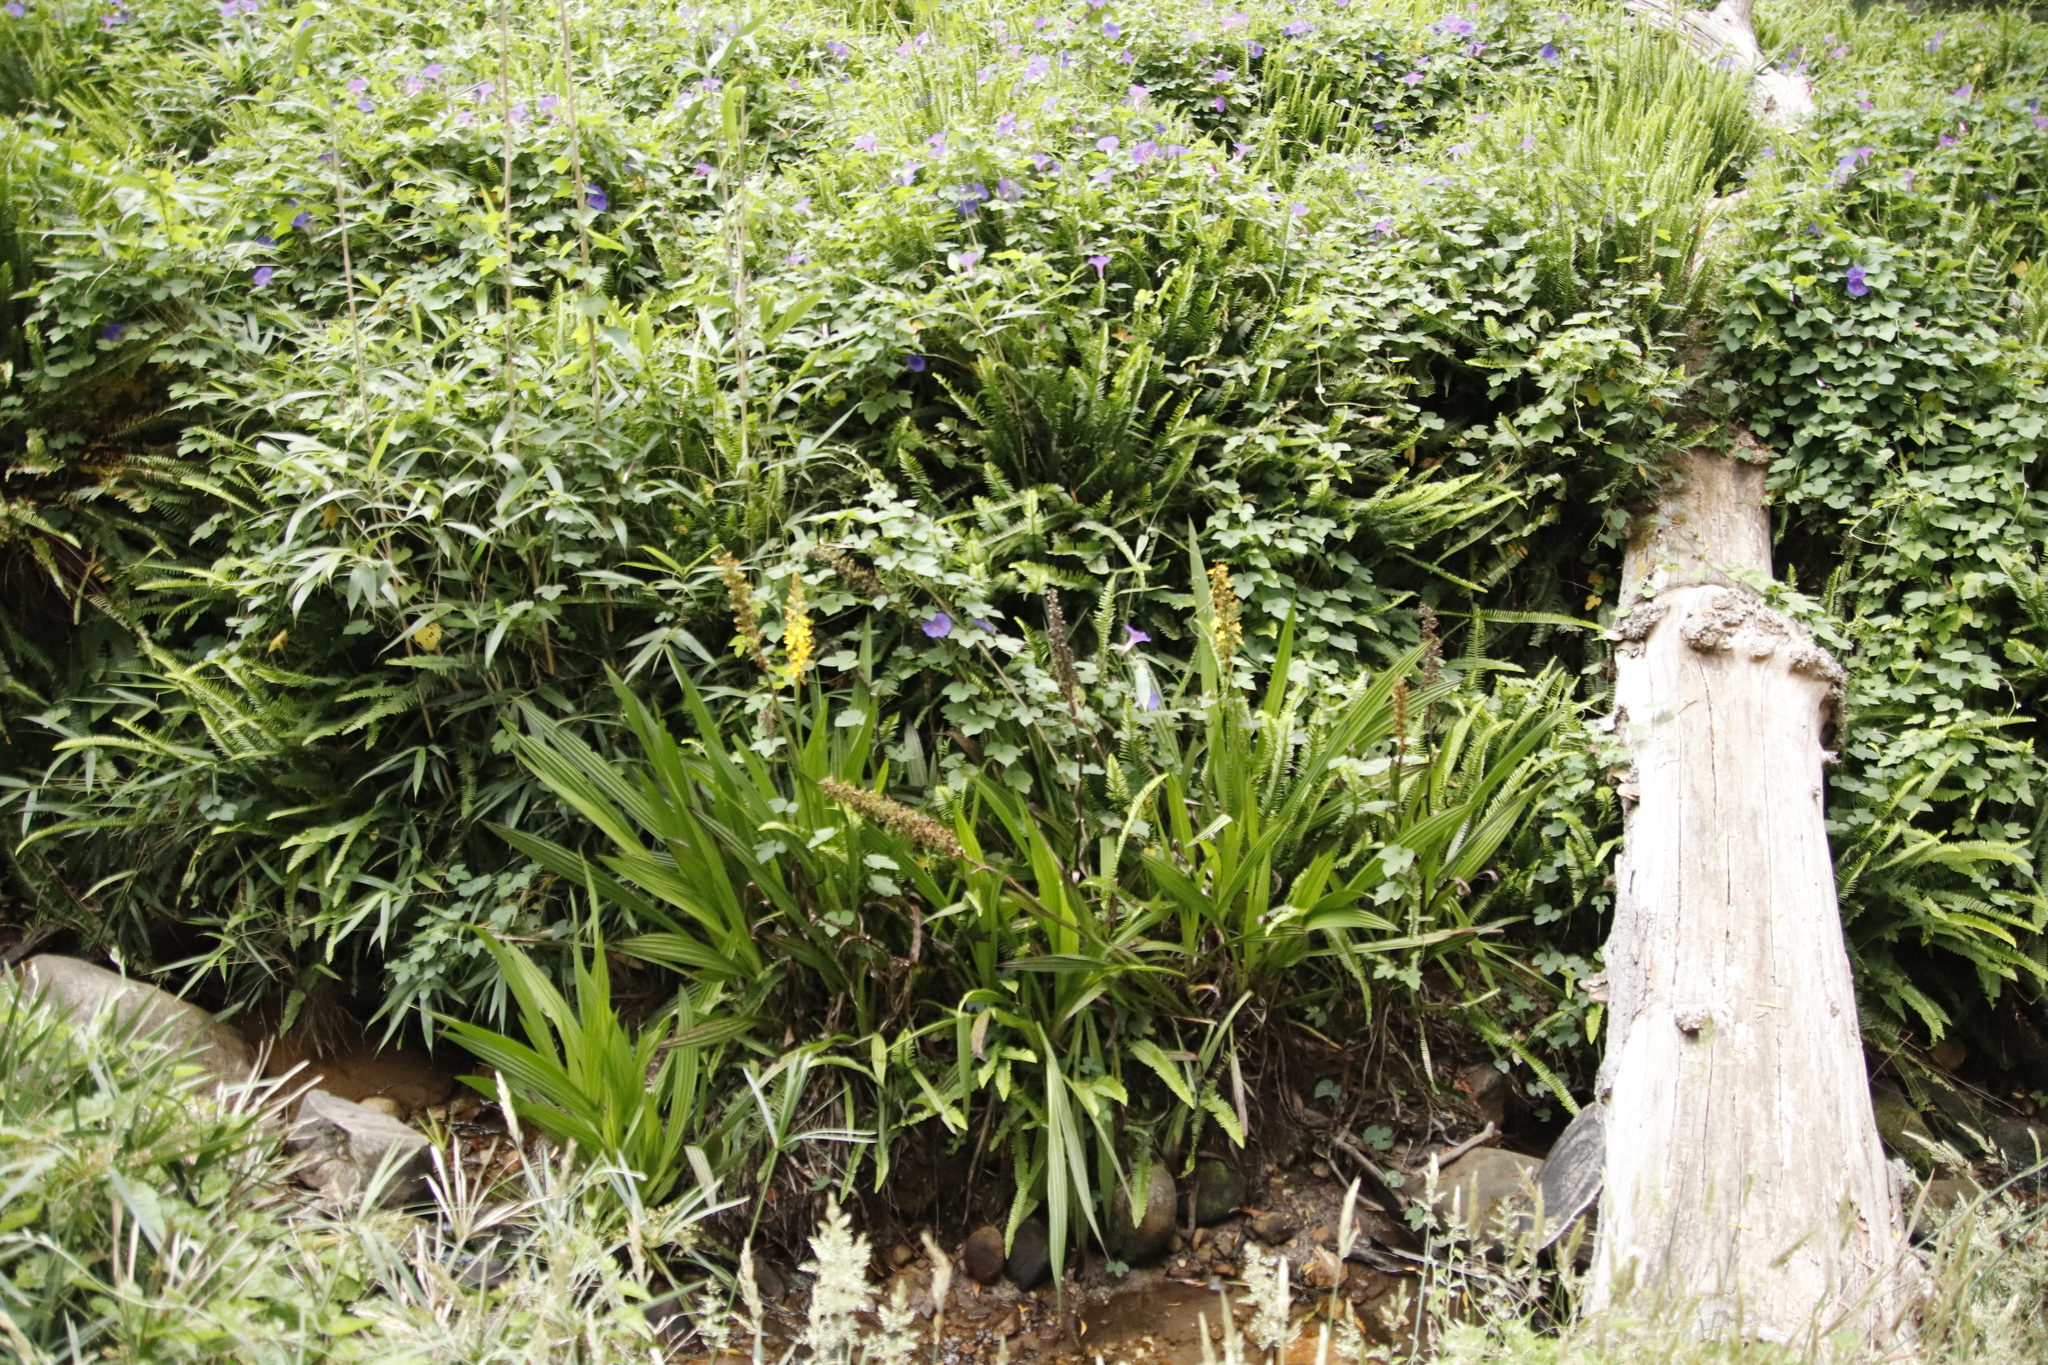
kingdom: Plantae
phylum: Tracheophyta
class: Liliopsida
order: Commelinales
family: Haemodoraceae
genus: Wachendorfia
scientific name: Wachendorfia thyrsiflora
